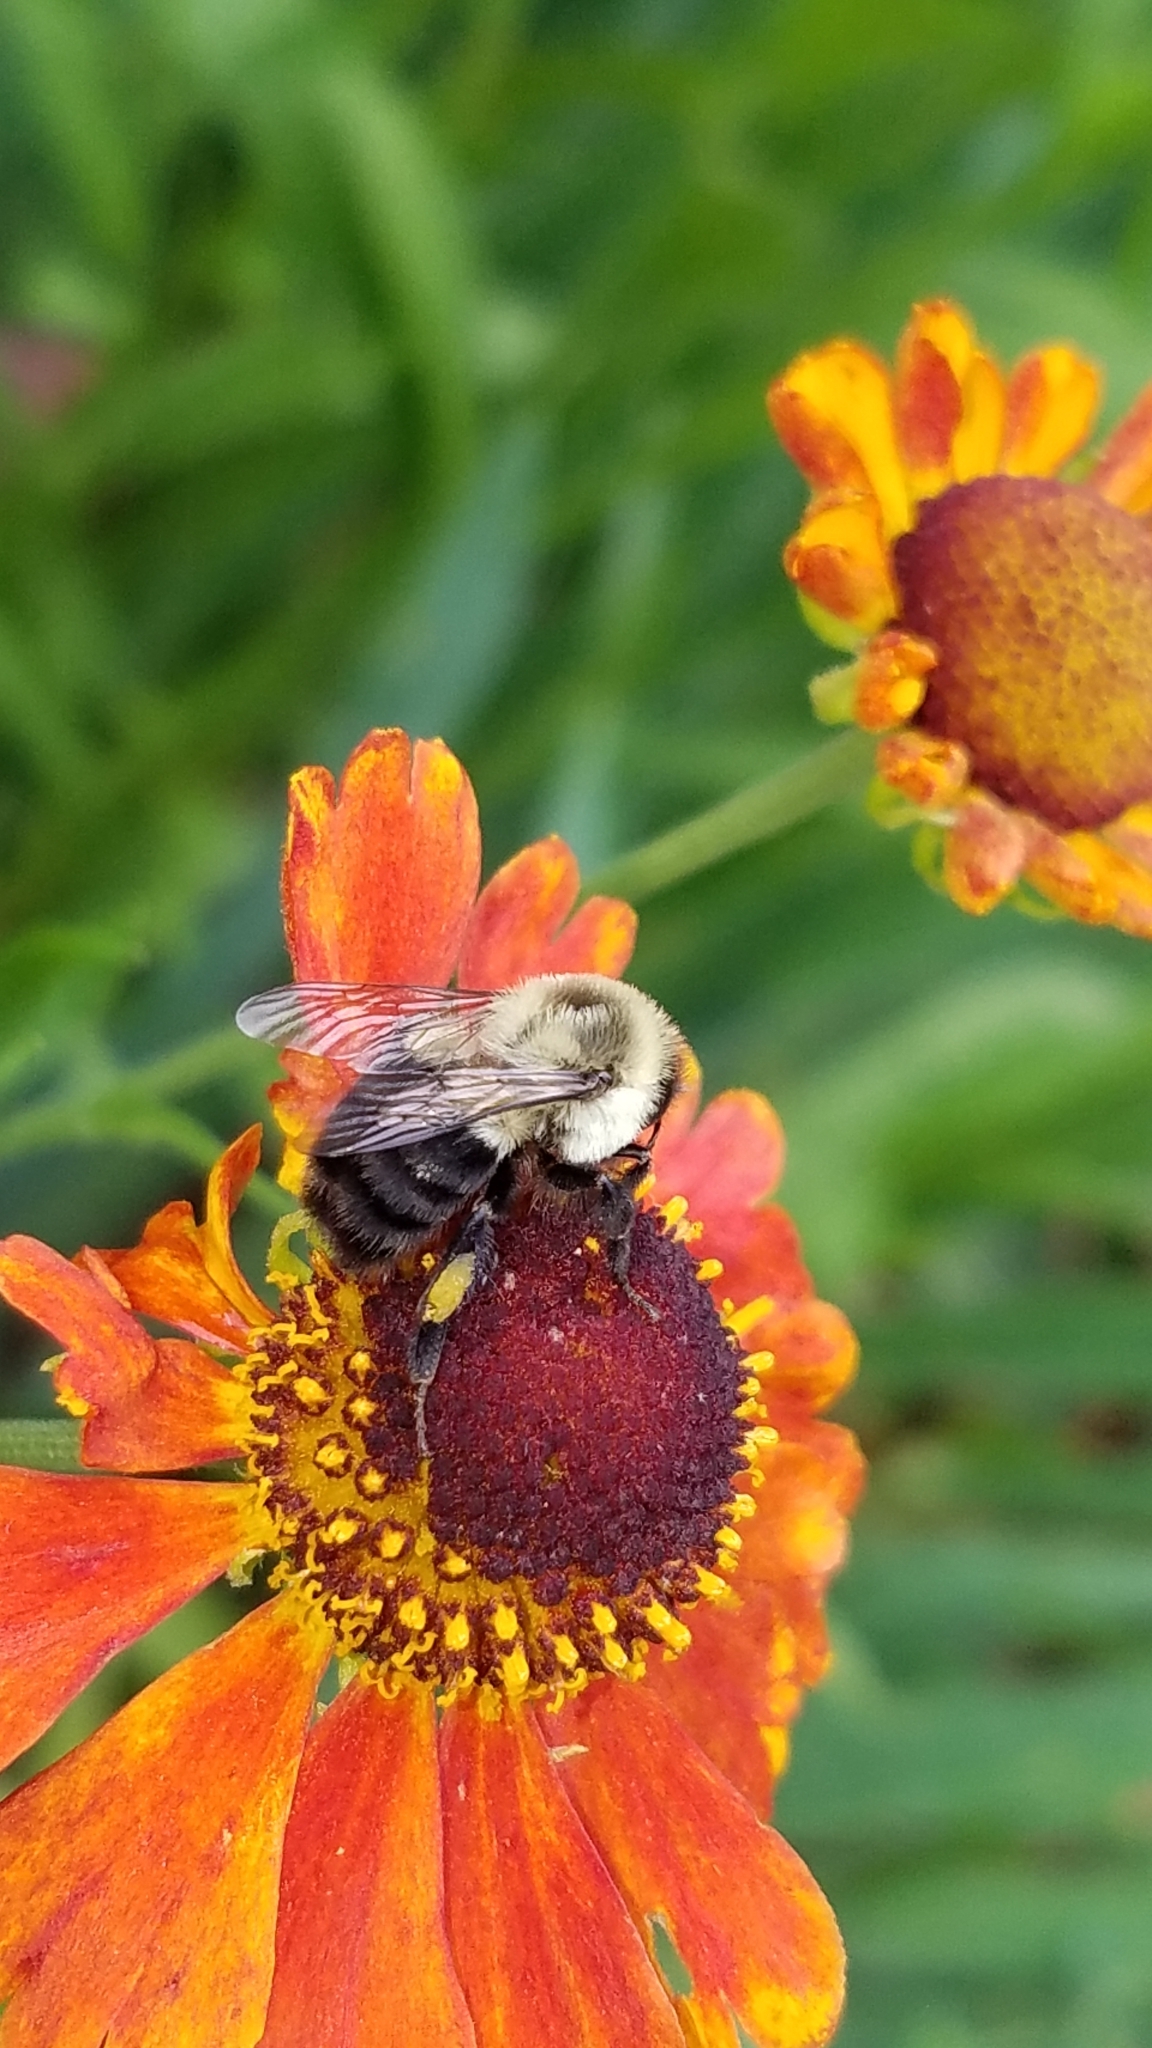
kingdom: Plantae
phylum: Tracheophyta
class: Magnoliopsida
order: Asterales
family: Asteraceae
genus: Gaillardia
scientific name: Gaillardia pulchella
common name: Firewheel
